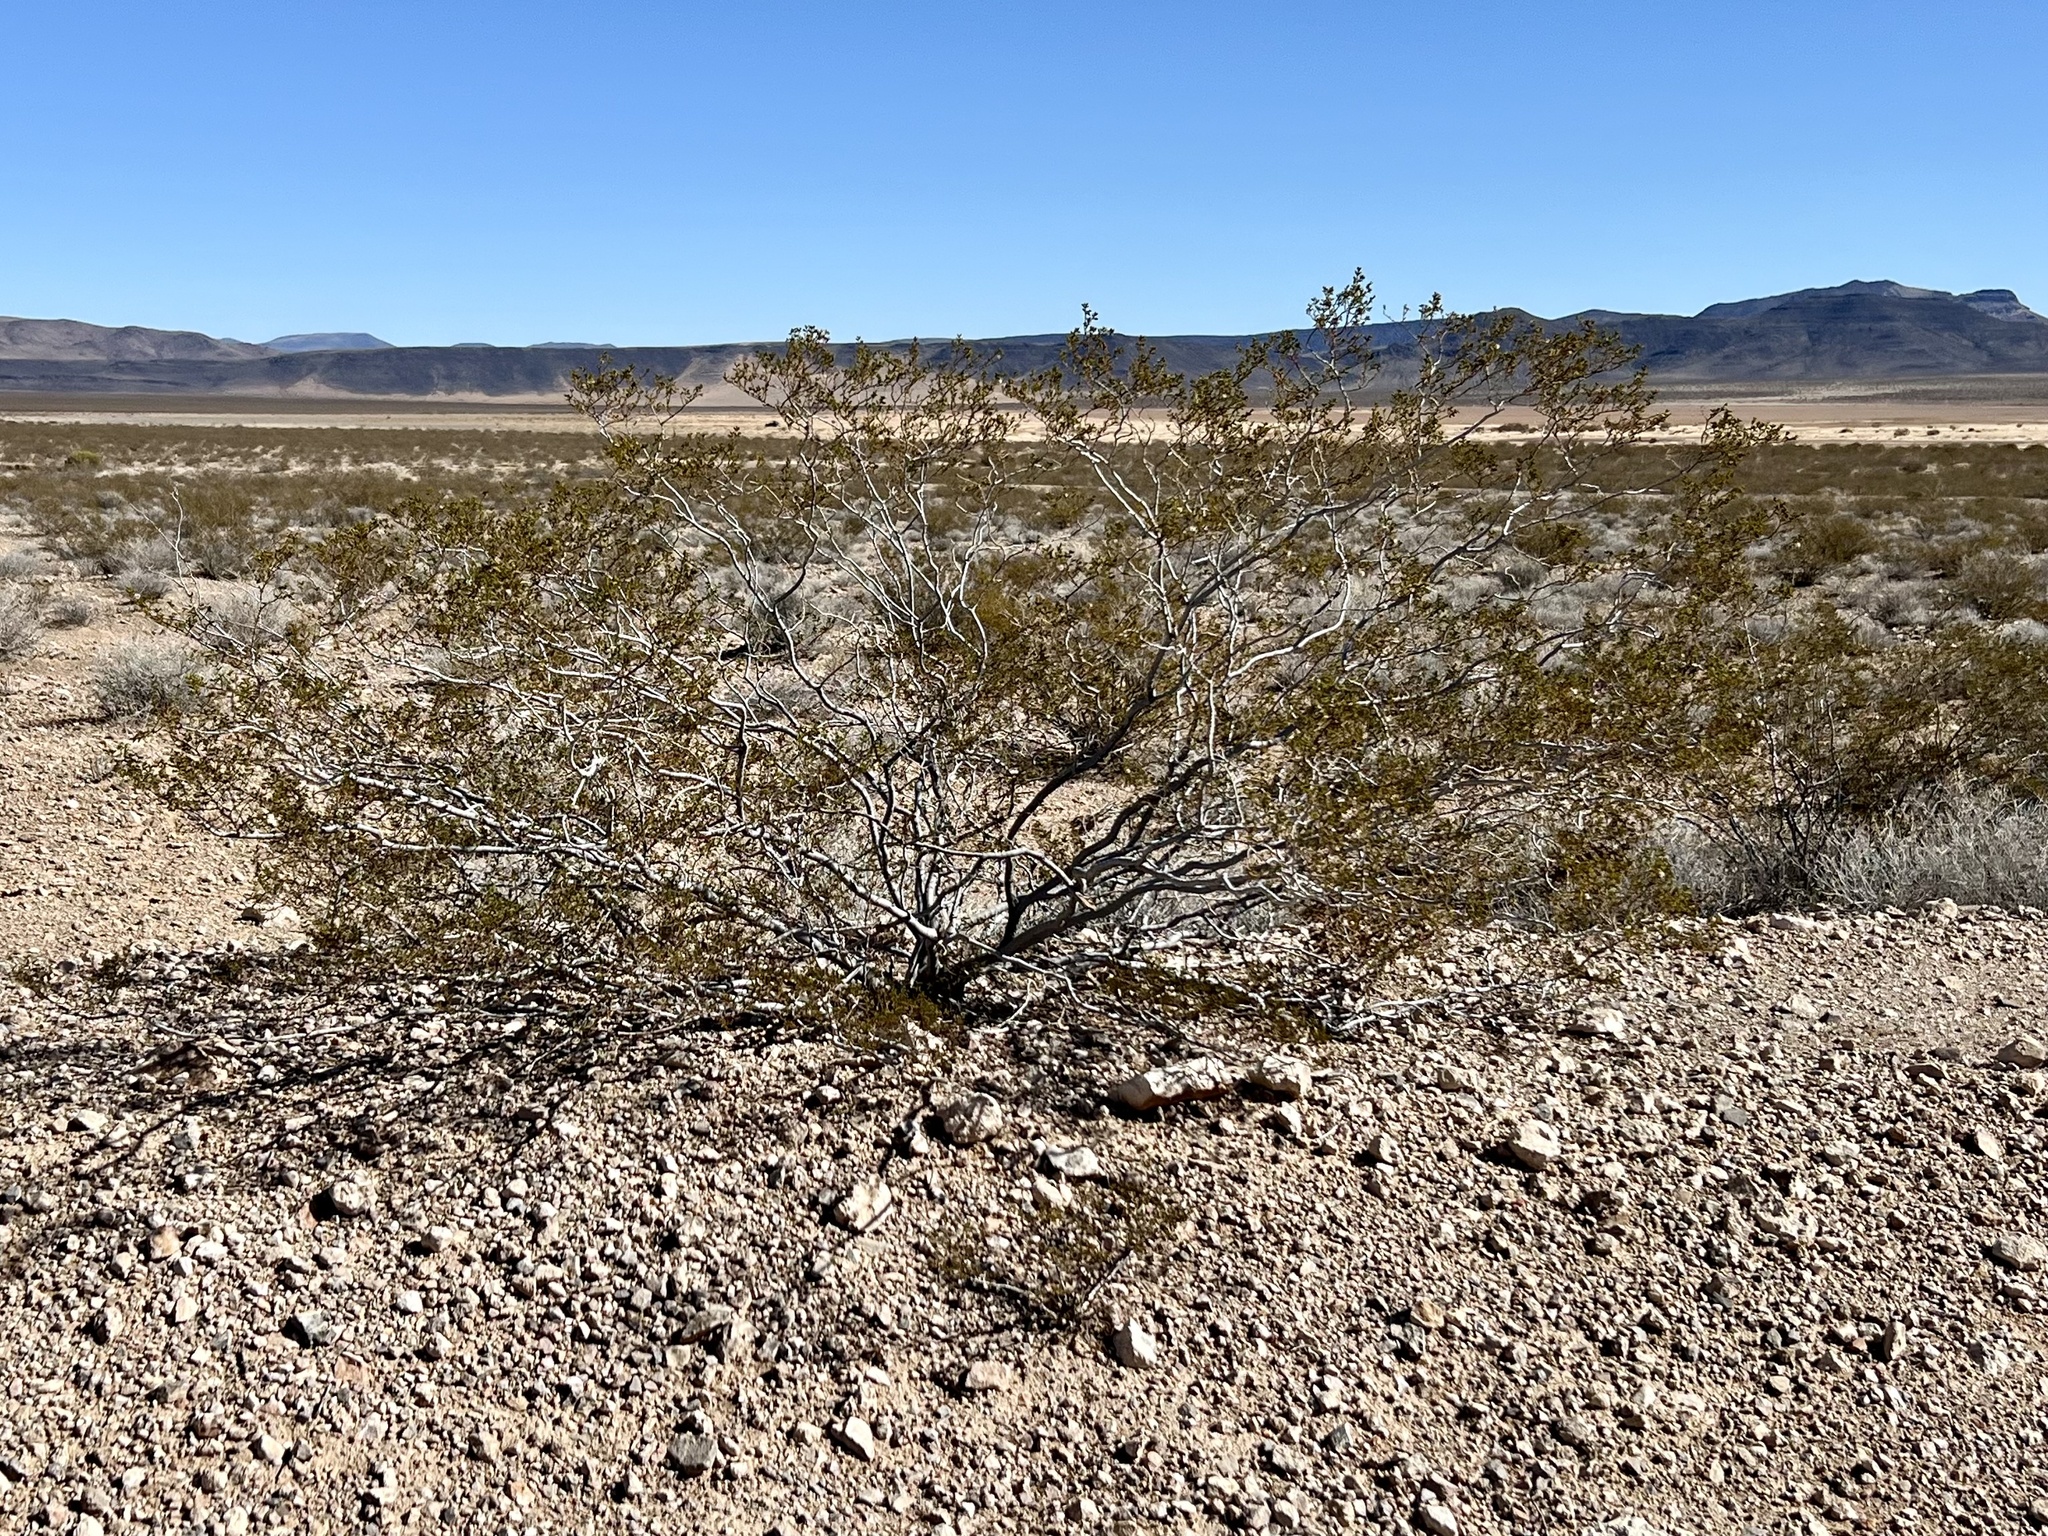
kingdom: Plantae
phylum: Tracheophyta
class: Magnoliopsida
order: Zygophyllales
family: Zygophyllaceae
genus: Larrea
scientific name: Larrea tridentata
